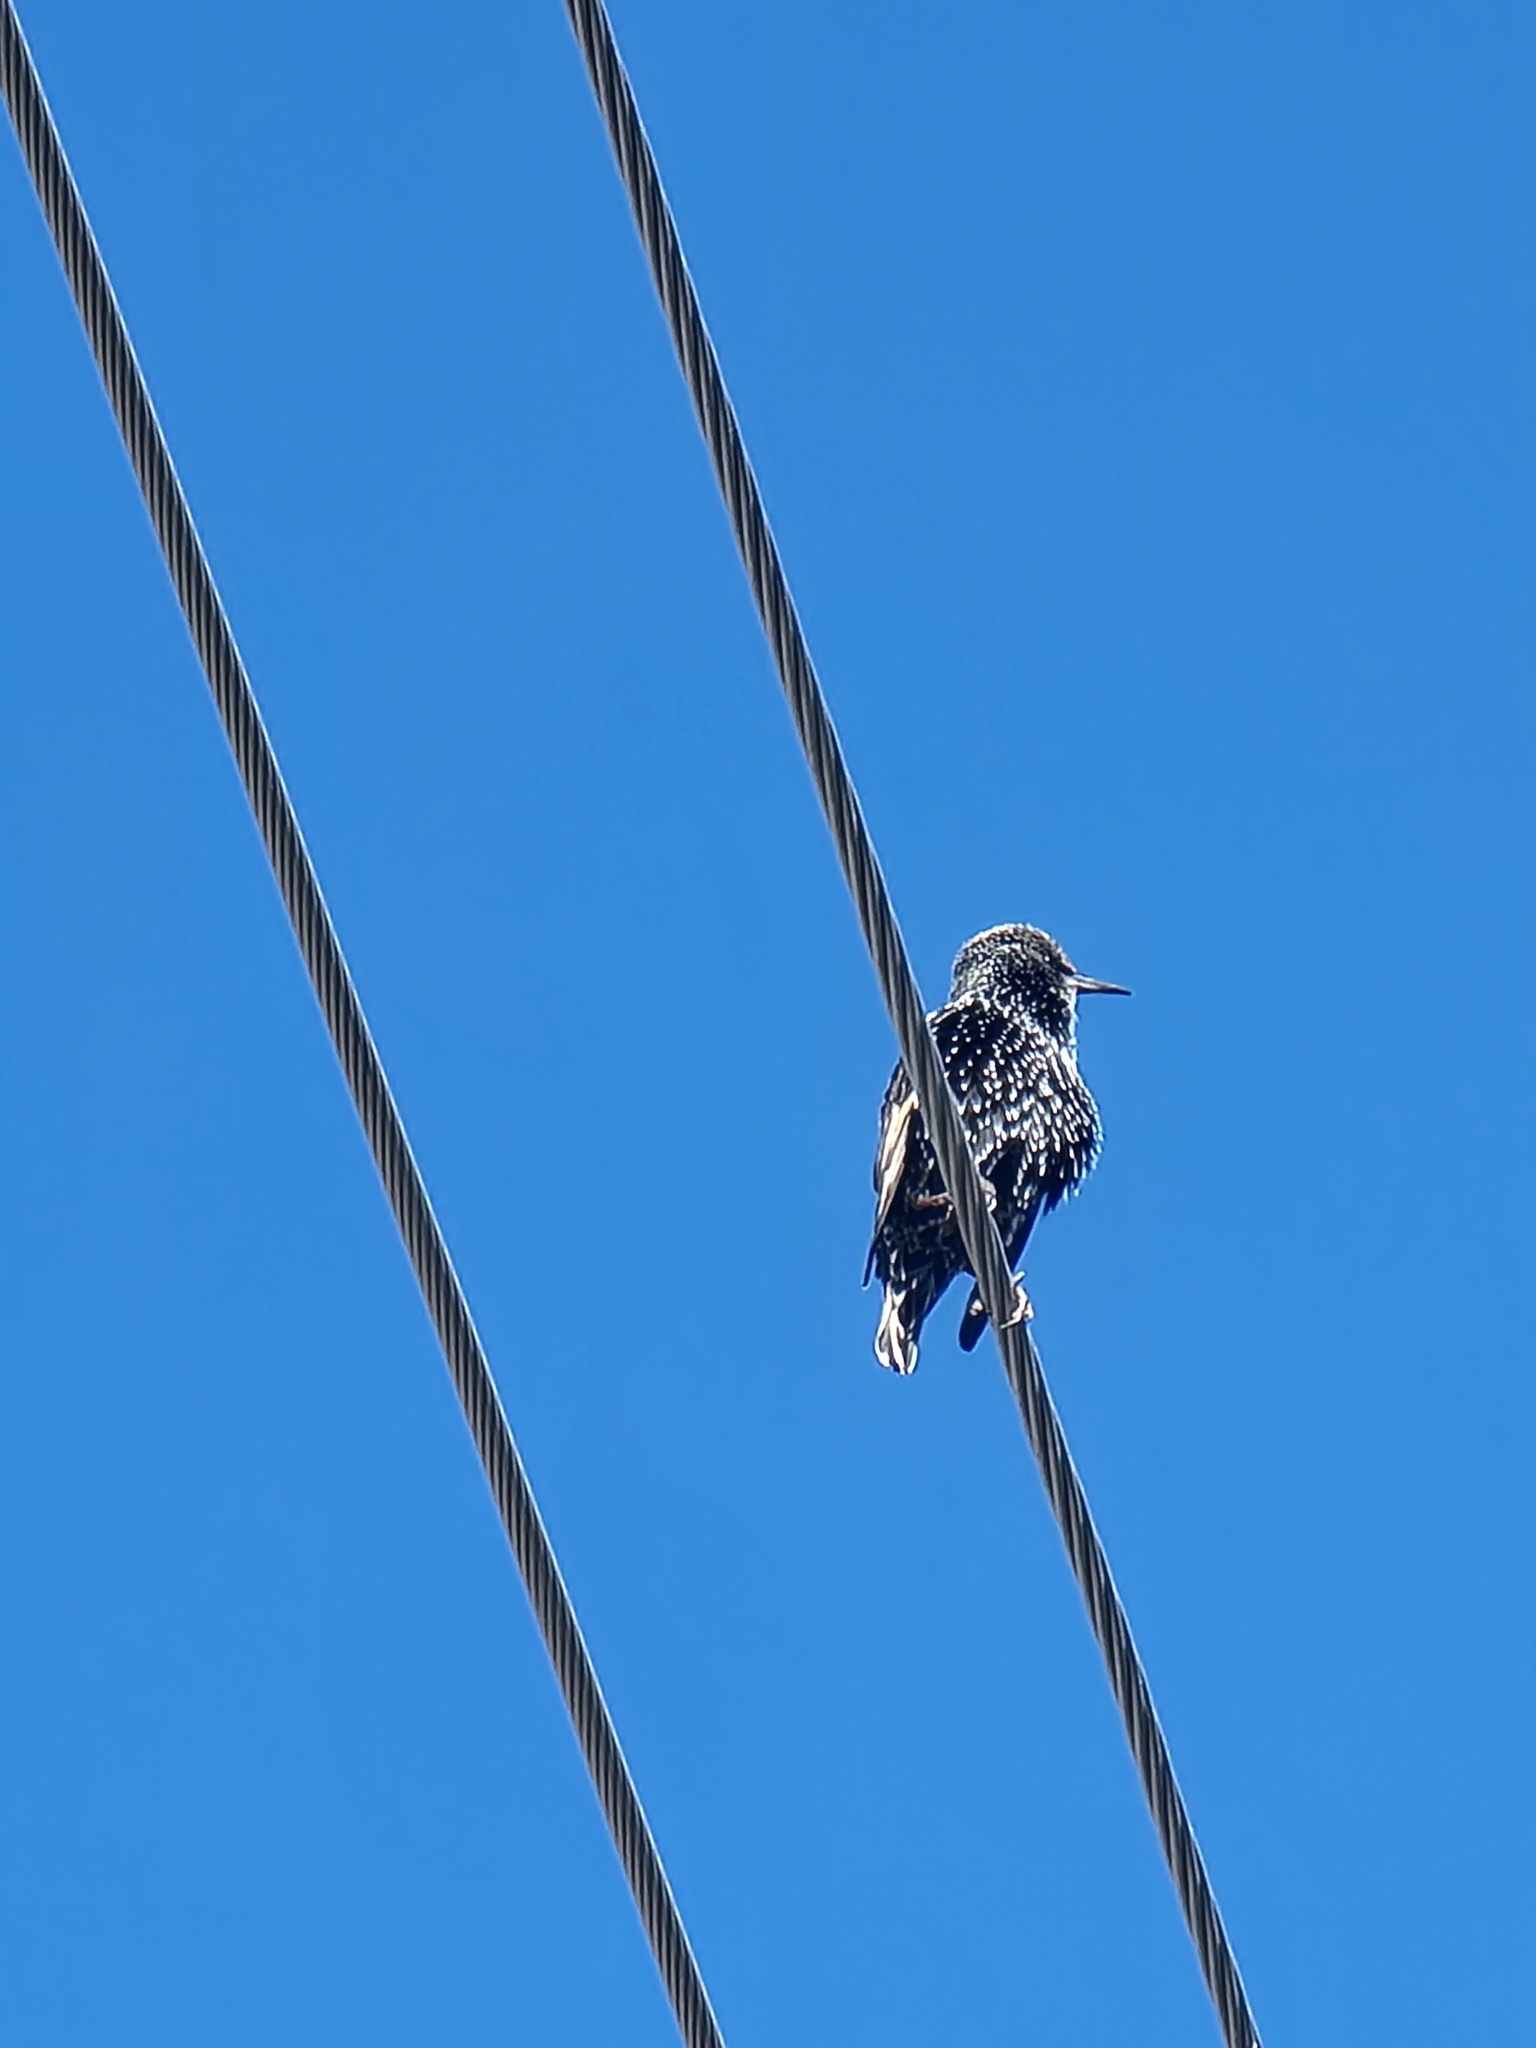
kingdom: Animalia
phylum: Chordata
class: Aves
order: Passeriformes
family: Sturnidae
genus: Sturnus
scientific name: Sturnus vulgaris
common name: Common starling
